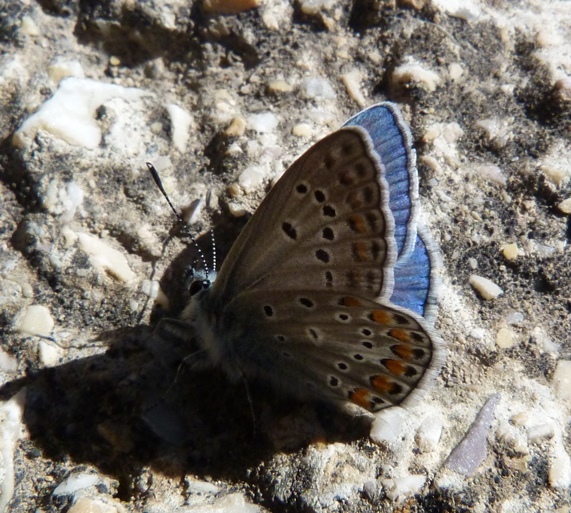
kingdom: Animalia
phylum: Arthropoda
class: Insecta
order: Lepidoptera
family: Lycaenidae
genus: Polyommatus
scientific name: Polyommatus thersites
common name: Chapman's blue
